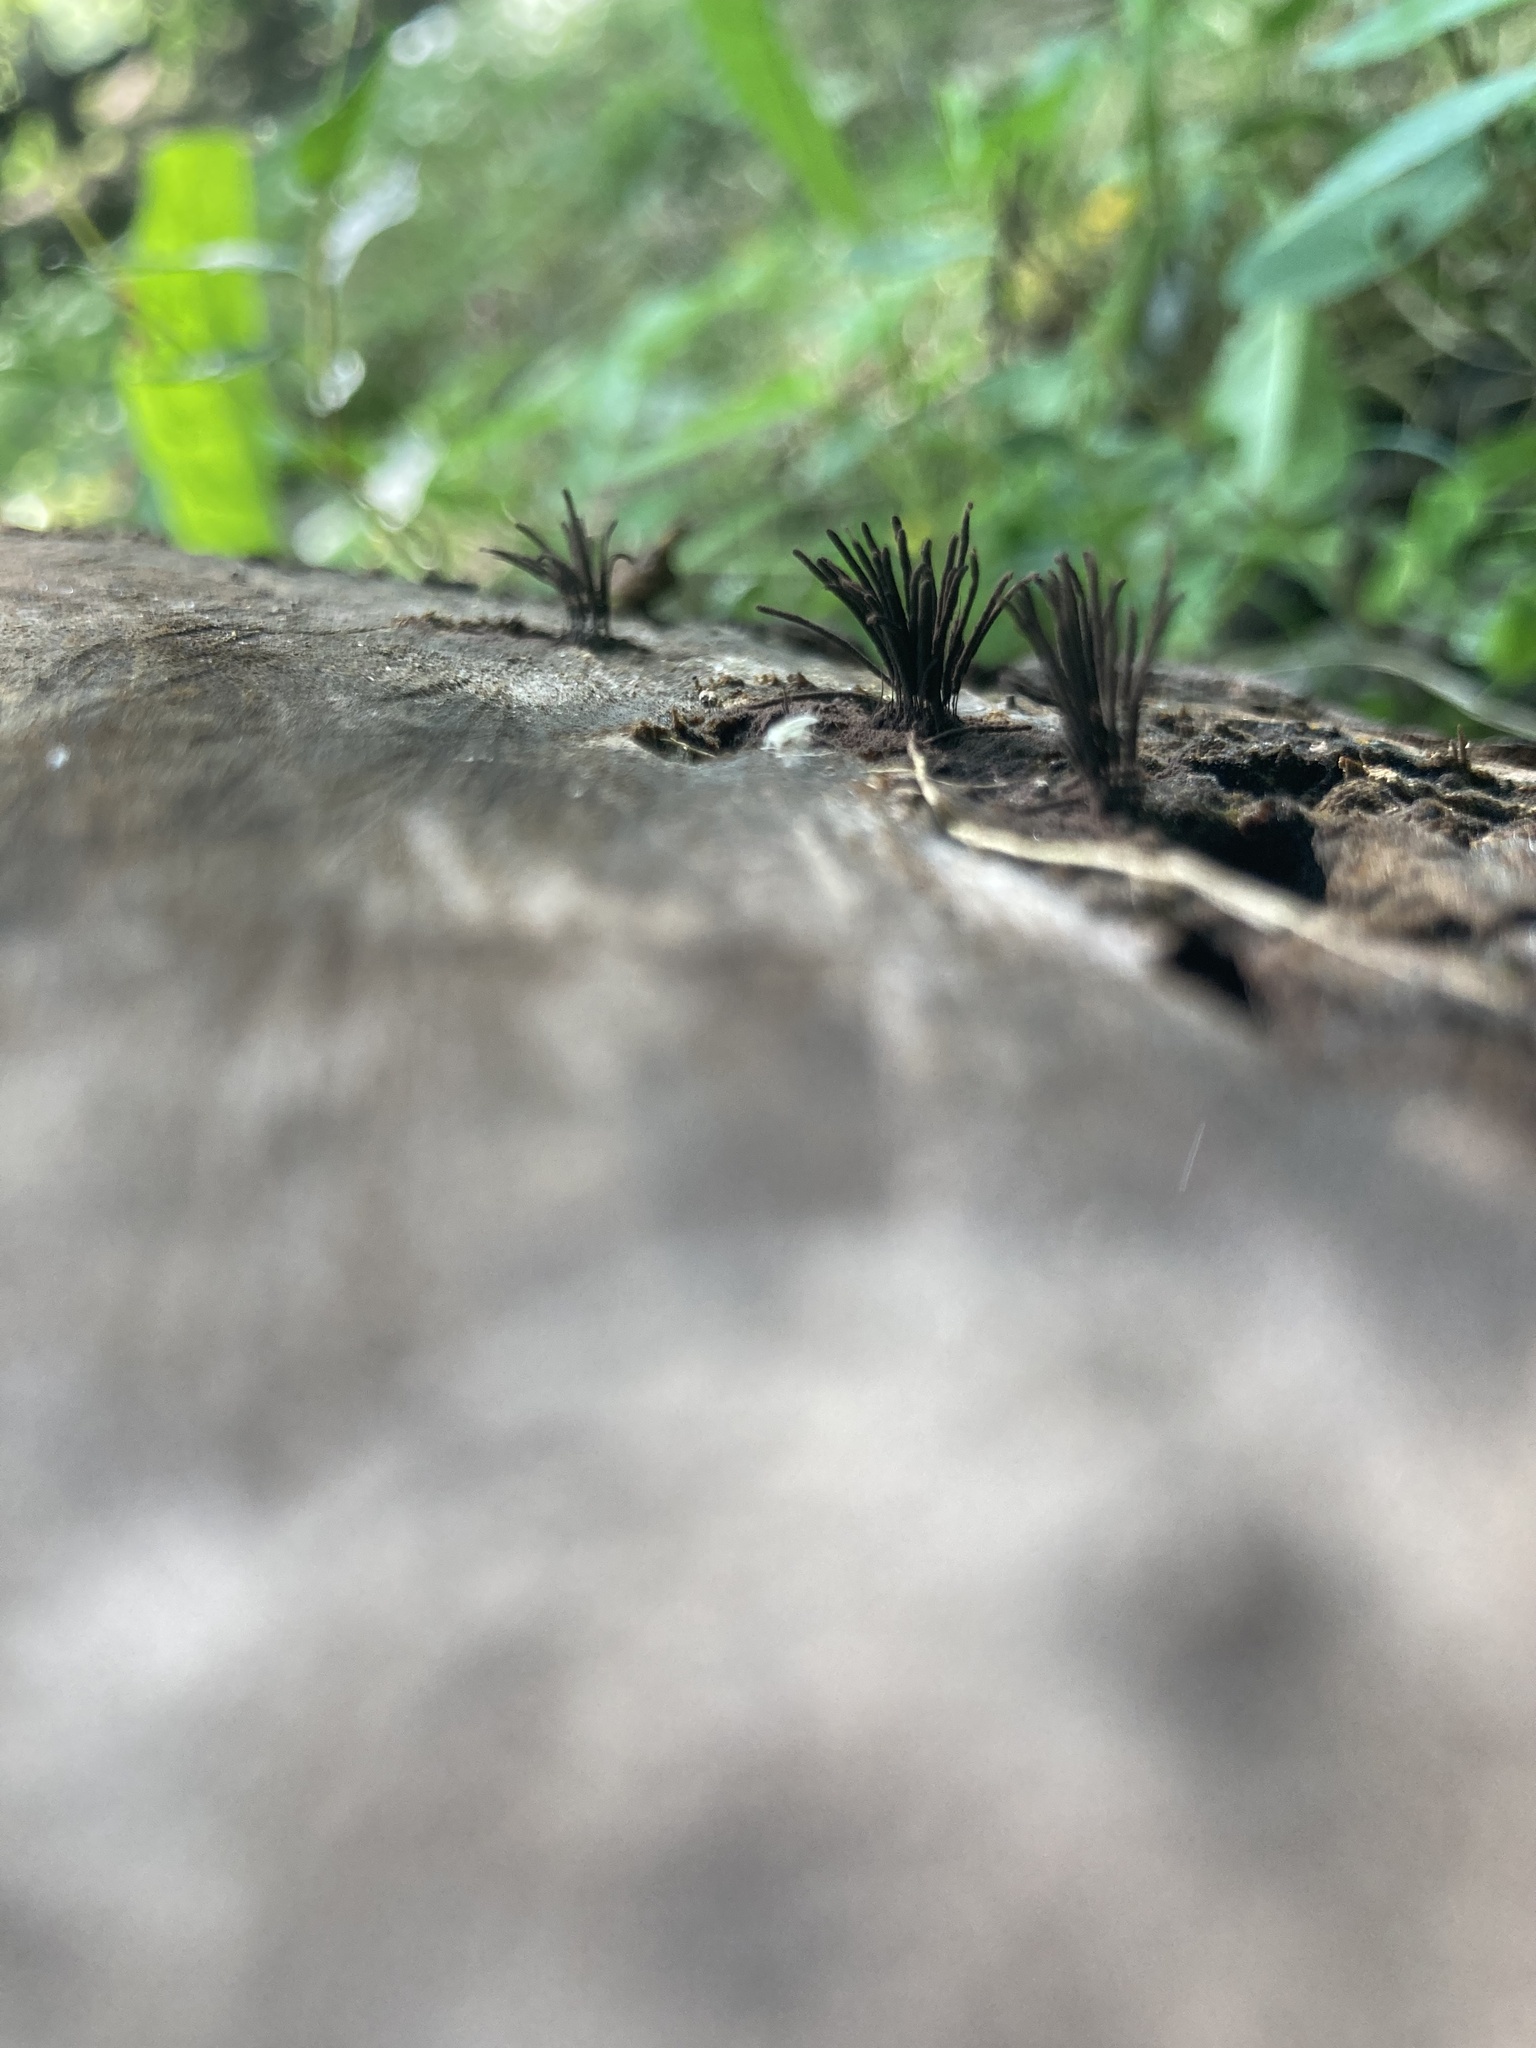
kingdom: Protozoa
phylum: Mycetozoa
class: Myxomycetes
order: Stemonitidales
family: Stemonitidaceae
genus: Stemonitis
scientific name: Stemonitis splendens
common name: Chocolate tube slime
